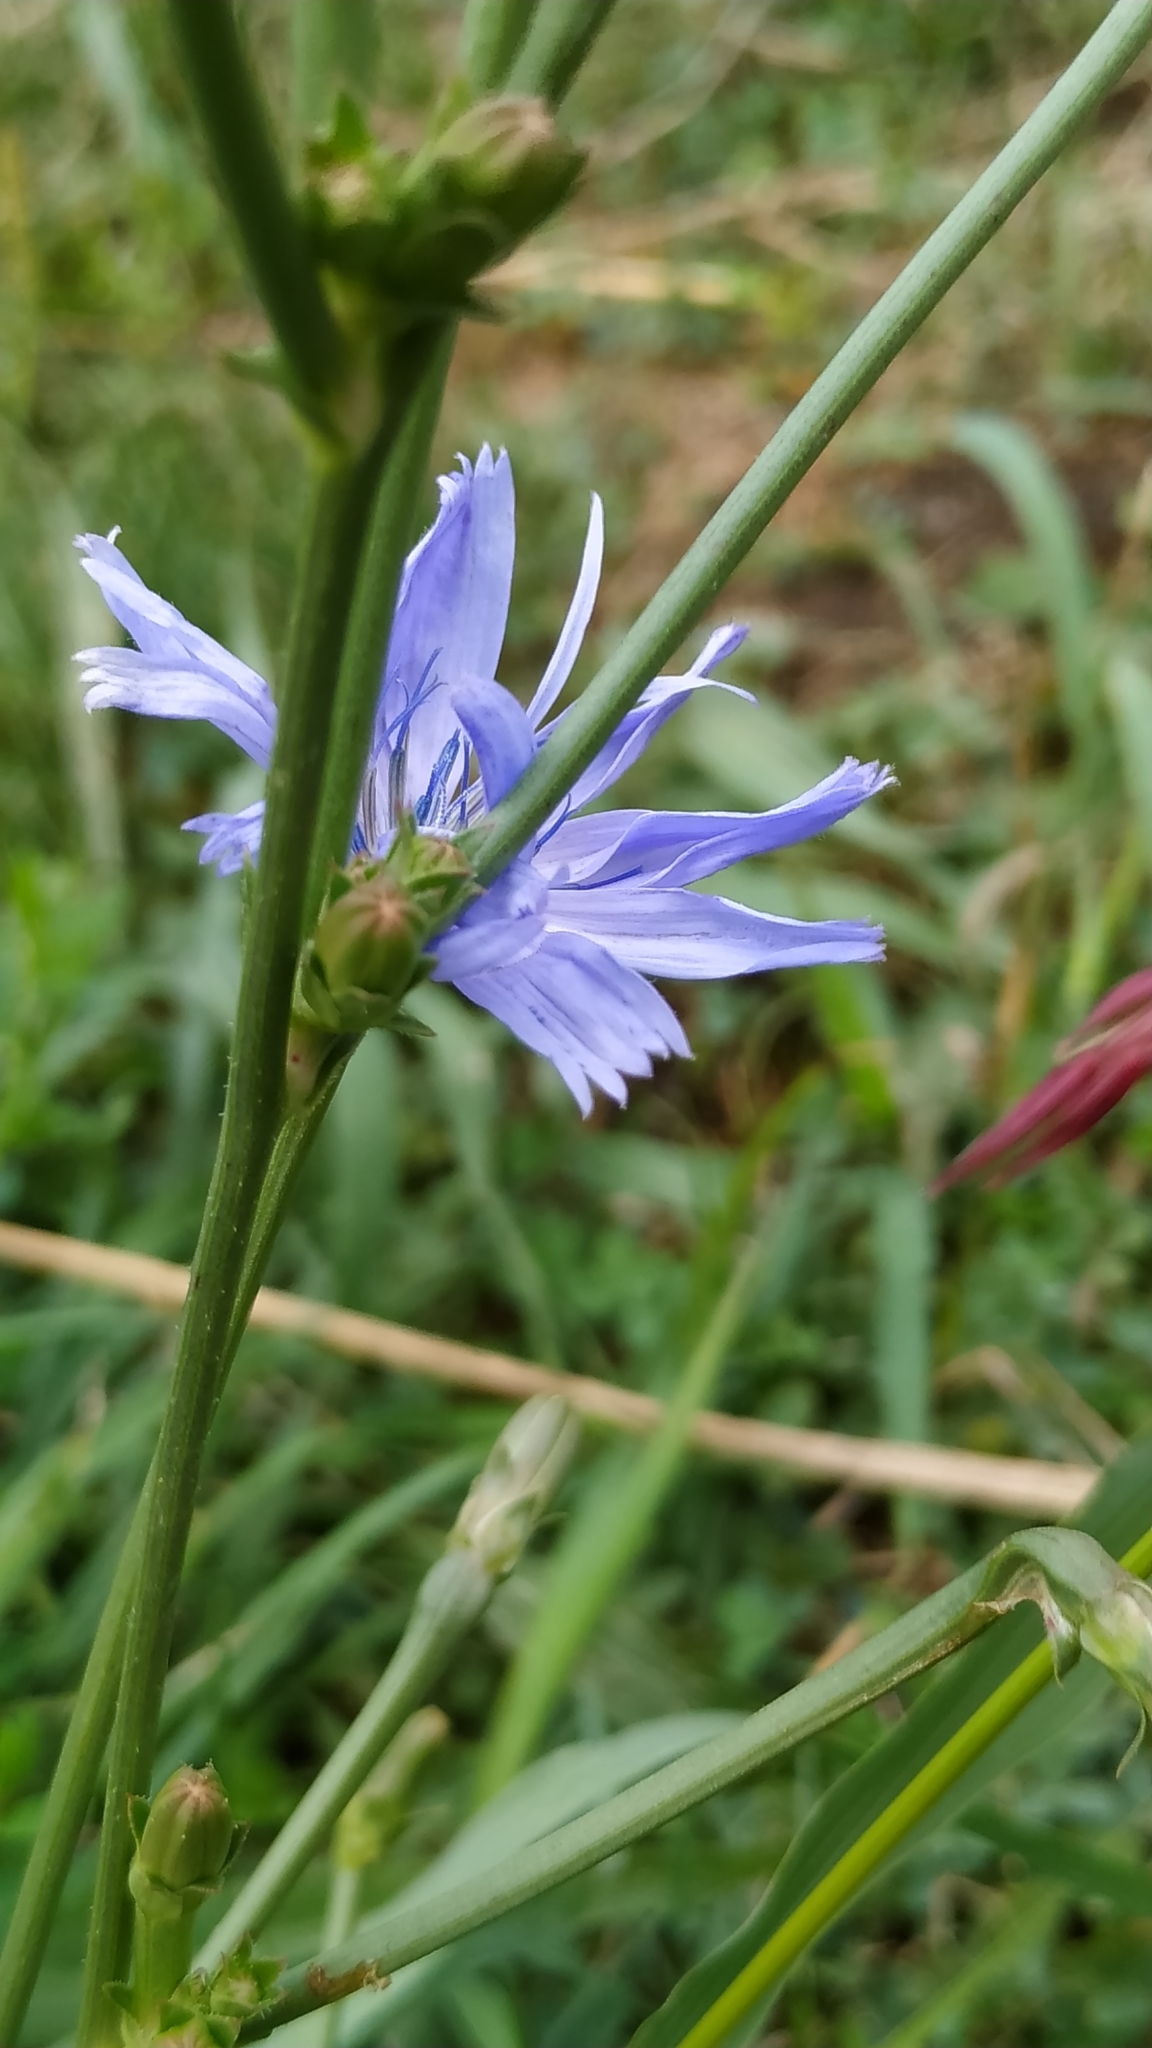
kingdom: Plantae
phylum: Tracheophyta
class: Magnoliopsida
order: Asterales
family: Asteraceae
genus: Cichorium
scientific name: Cichorium intybus
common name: Chicory
